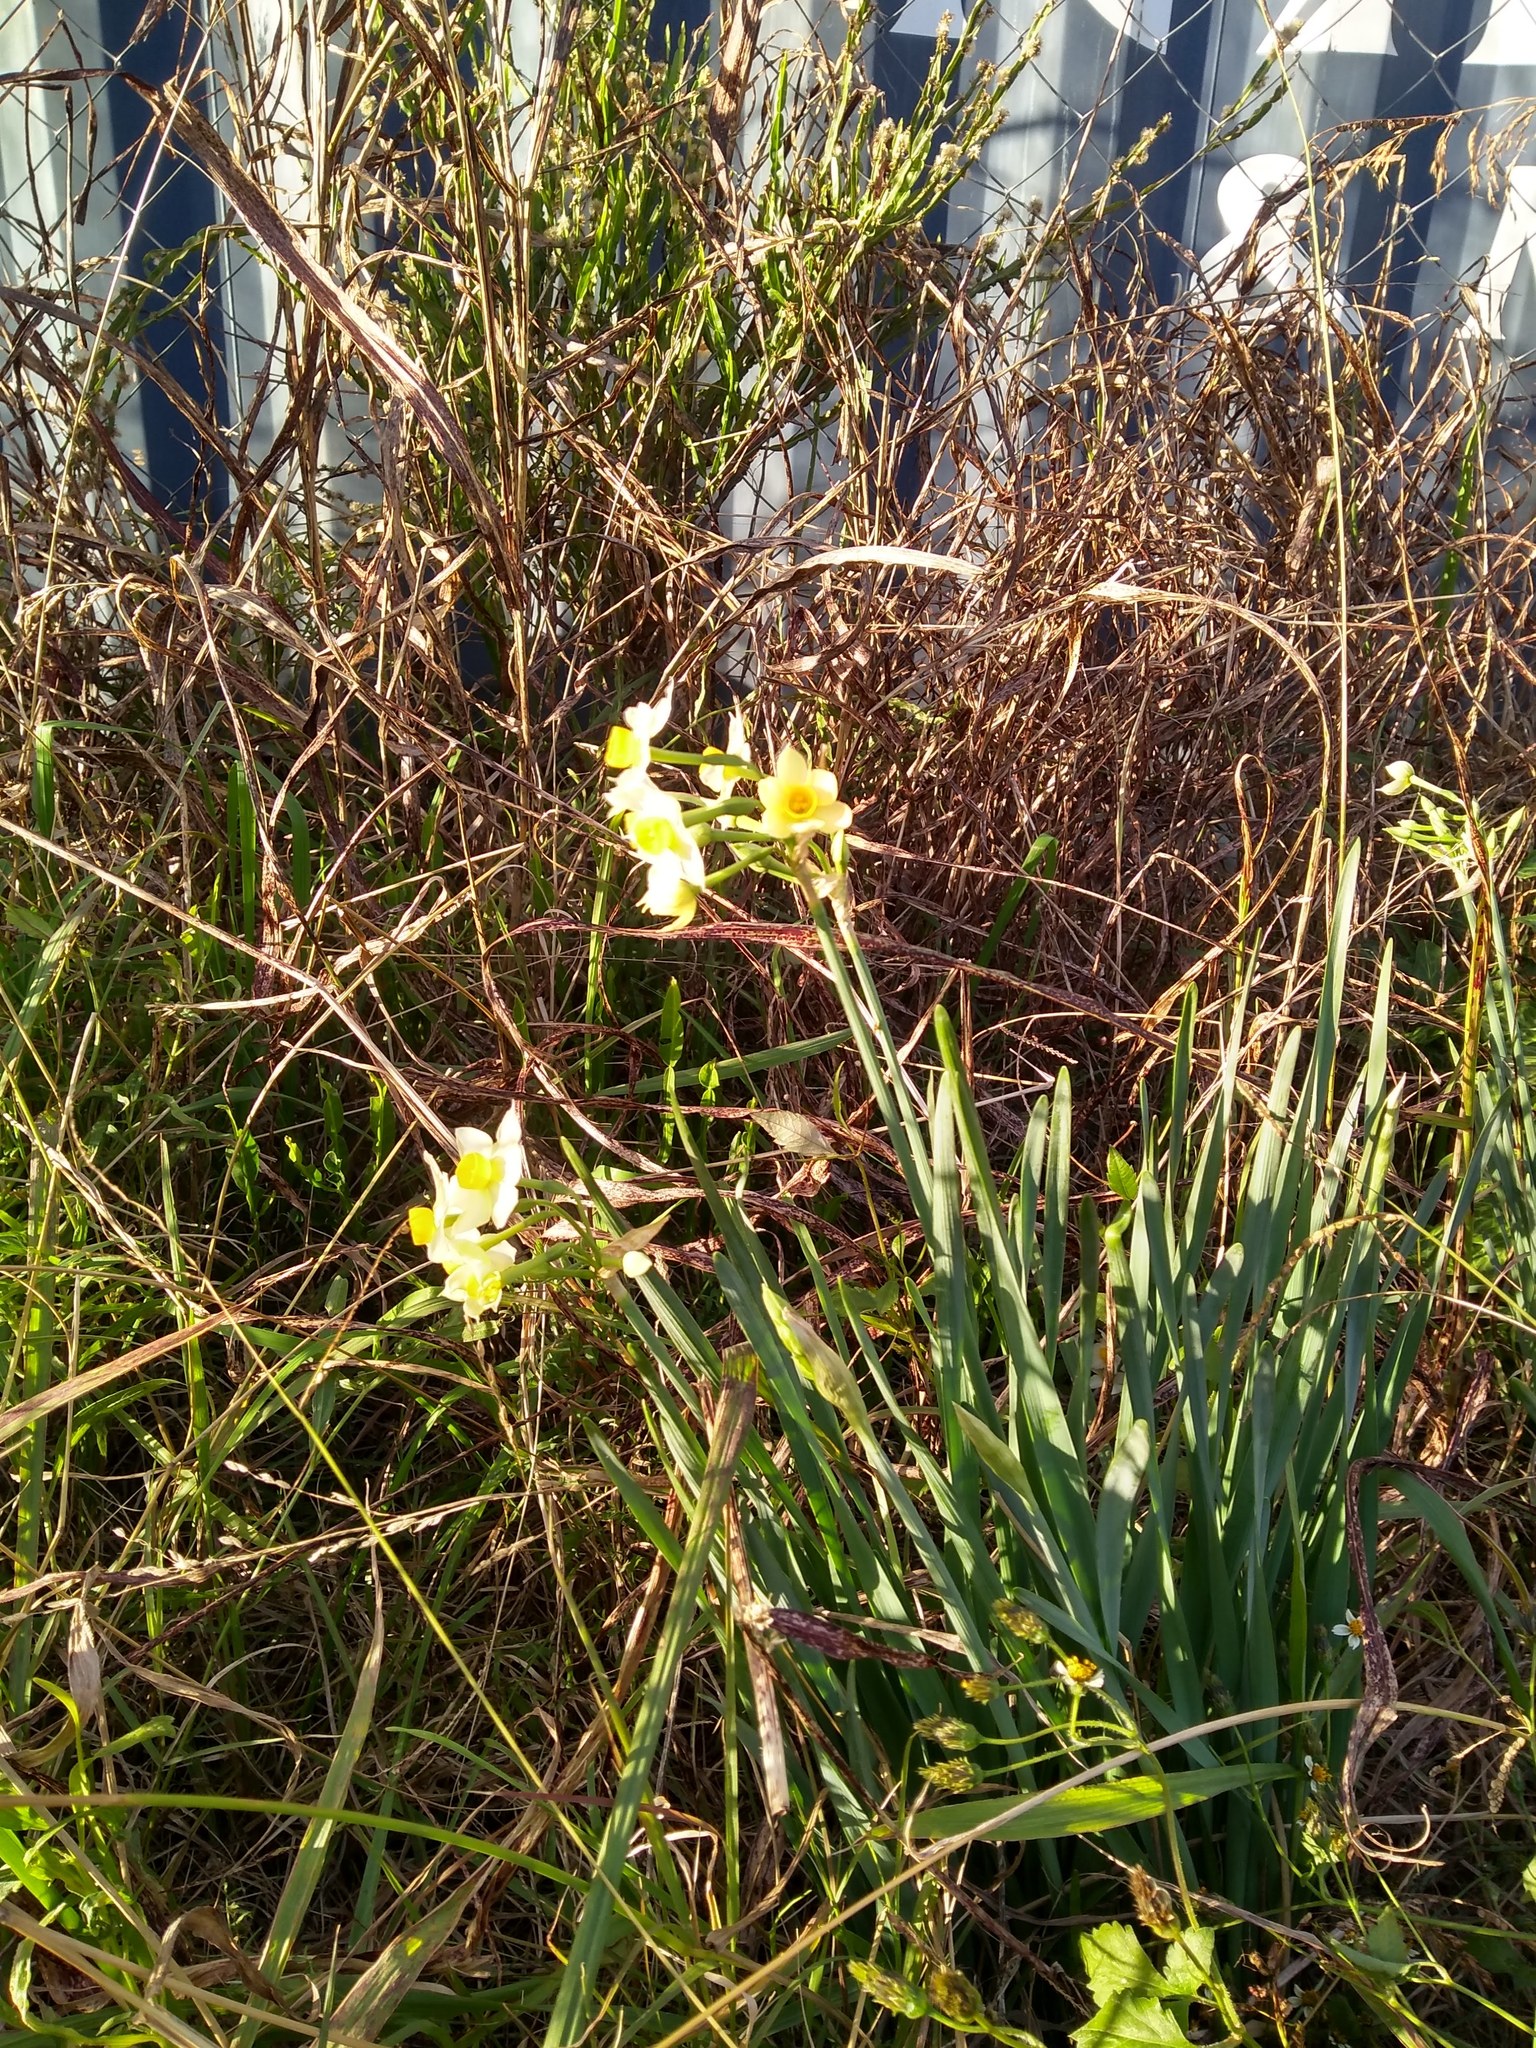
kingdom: Plantae
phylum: Tracheophyta
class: Liliopsida
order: Asparagales
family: Amaryllidaceae
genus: Narcissus
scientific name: Narcissus tazetta
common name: Bunch-flowered daffodil
